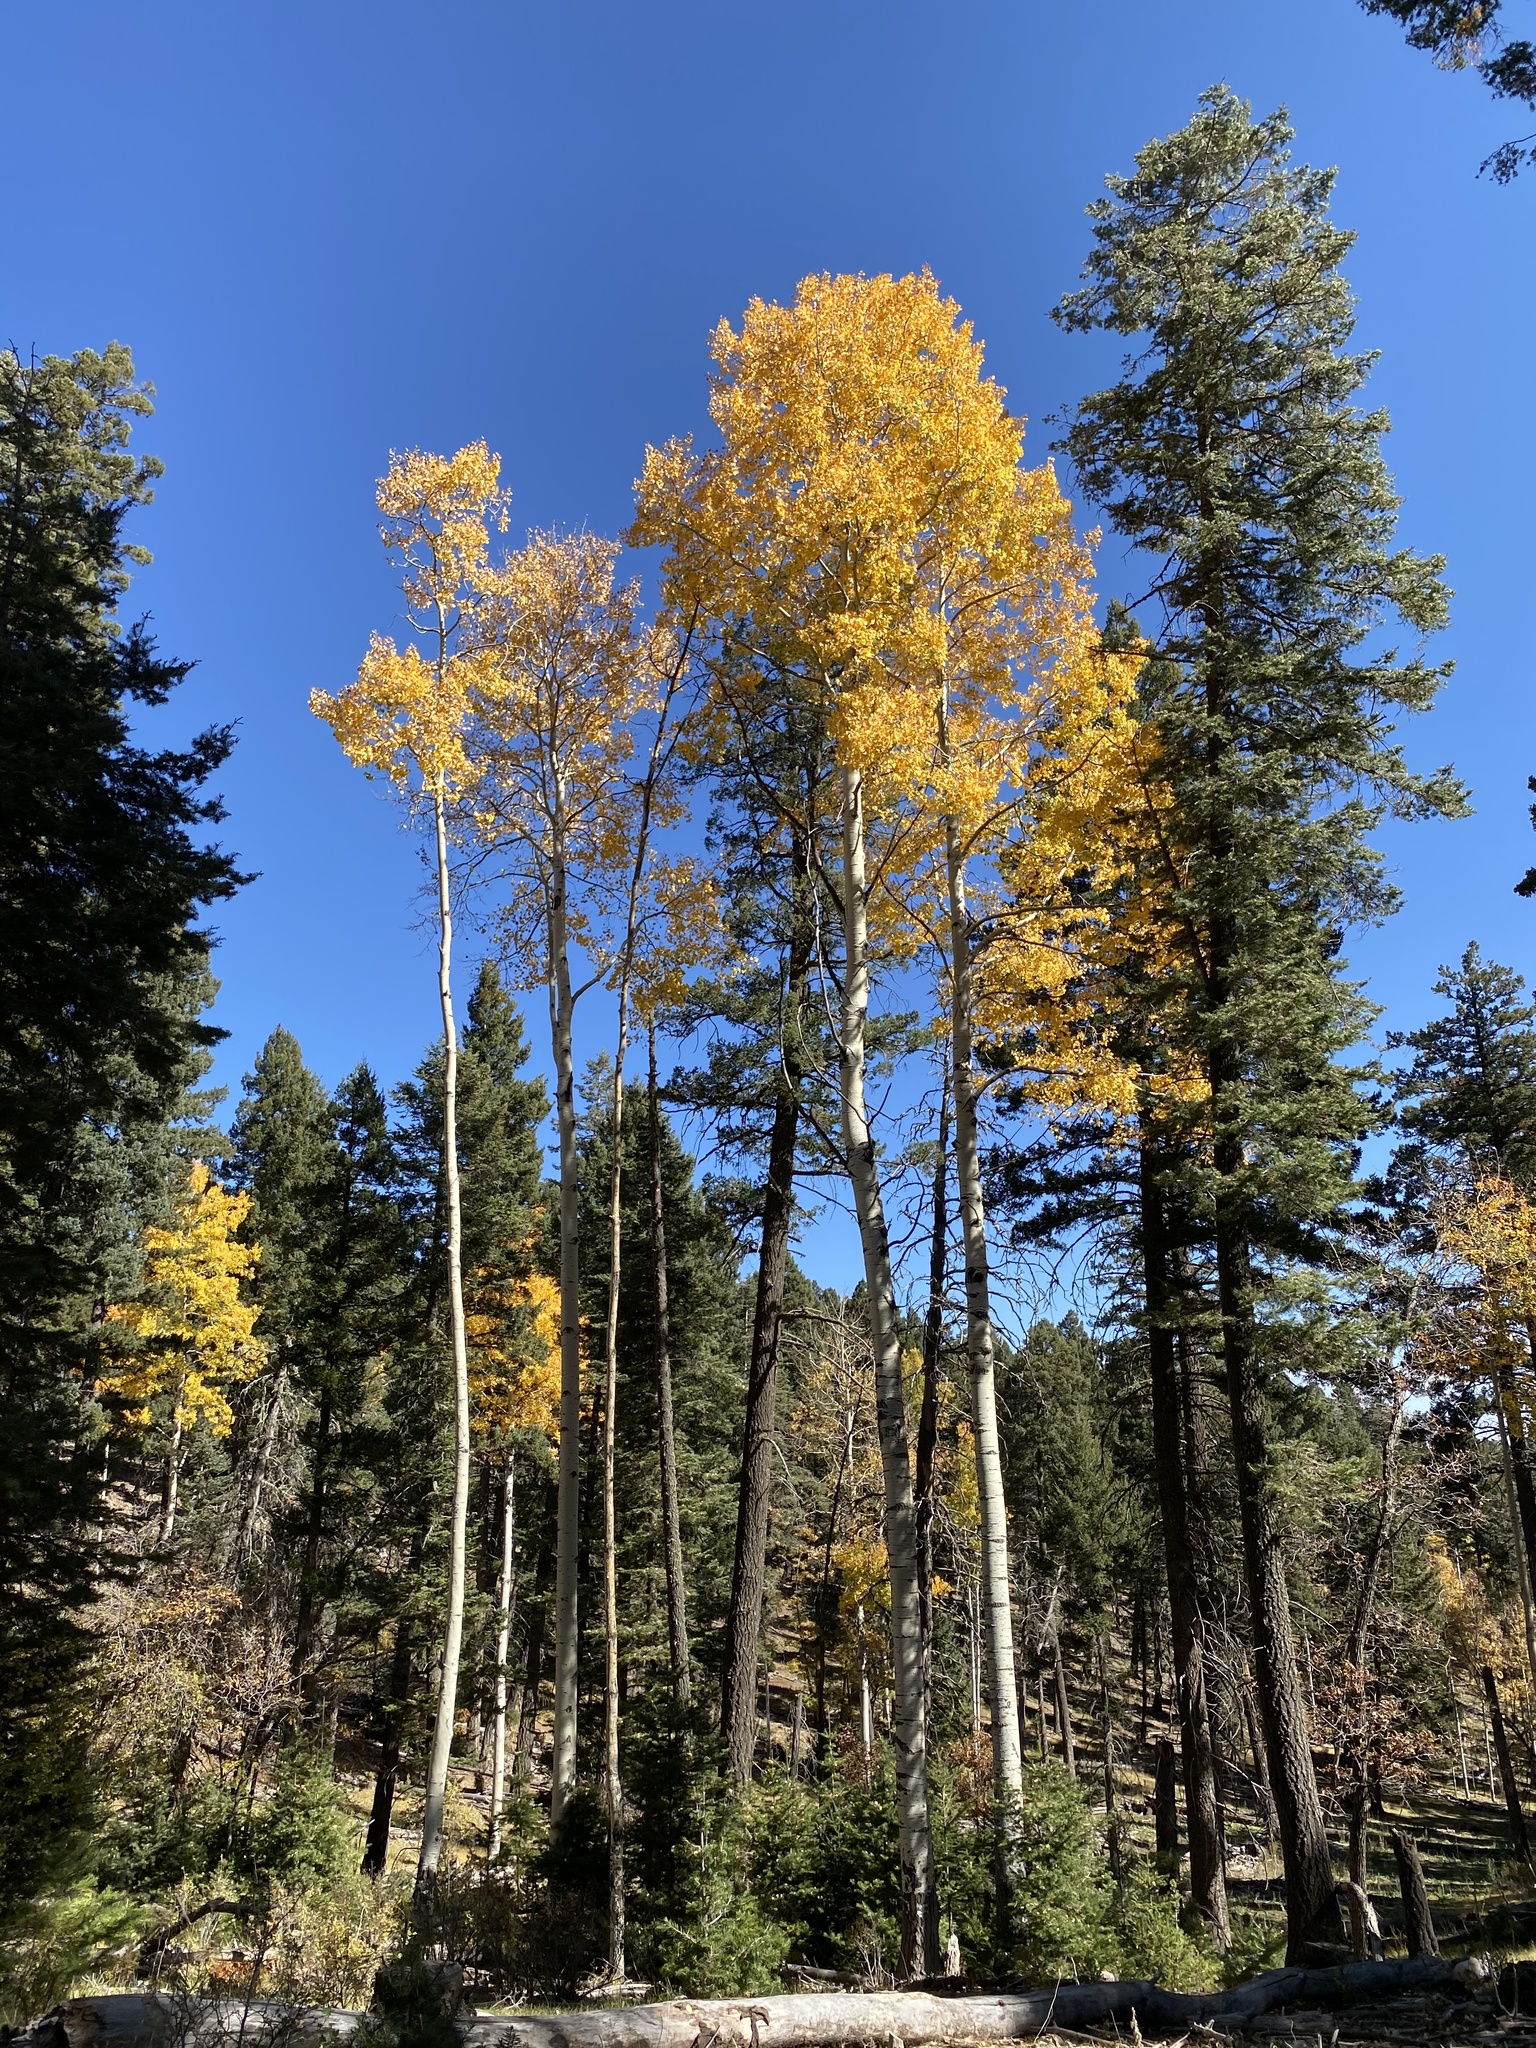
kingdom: Plantae
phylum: Tracheophyta
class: Magnoliopsida
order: Malpighiales
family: Salicaceae
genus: Populus
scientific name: Populus tremuloides
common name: Quaking aspen
